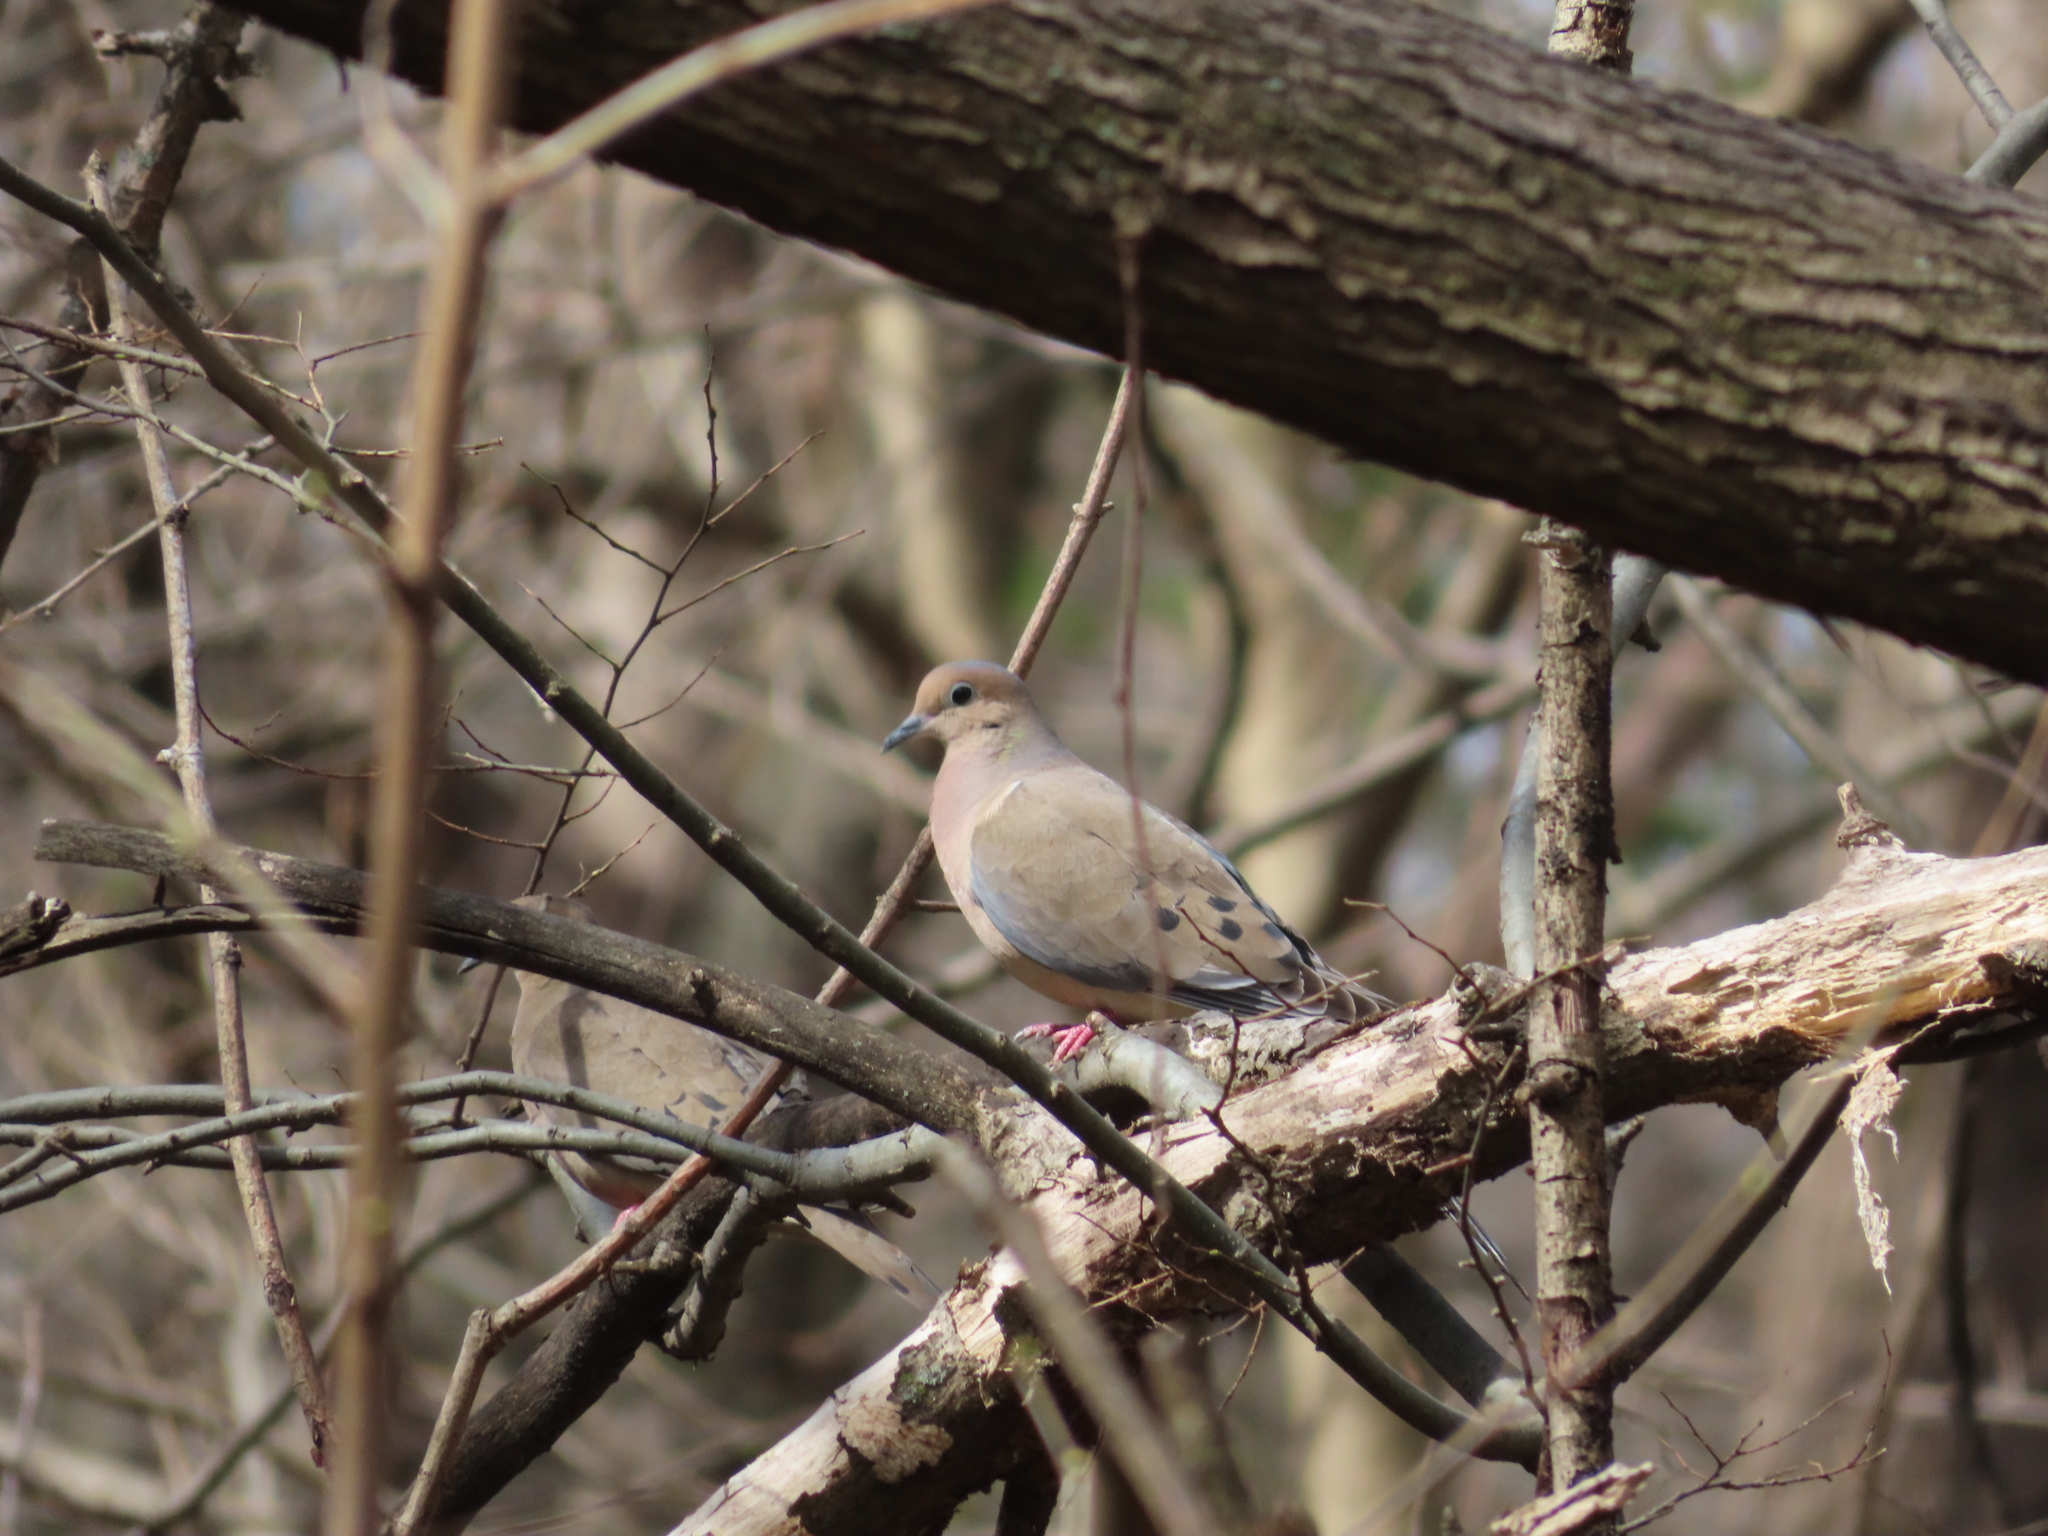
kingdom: Animalia
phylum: Chordata
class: Aves
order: Columbiformes
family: Columbidae
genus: Zenaida
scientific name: Zenaida macroura
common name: Mourning dove
